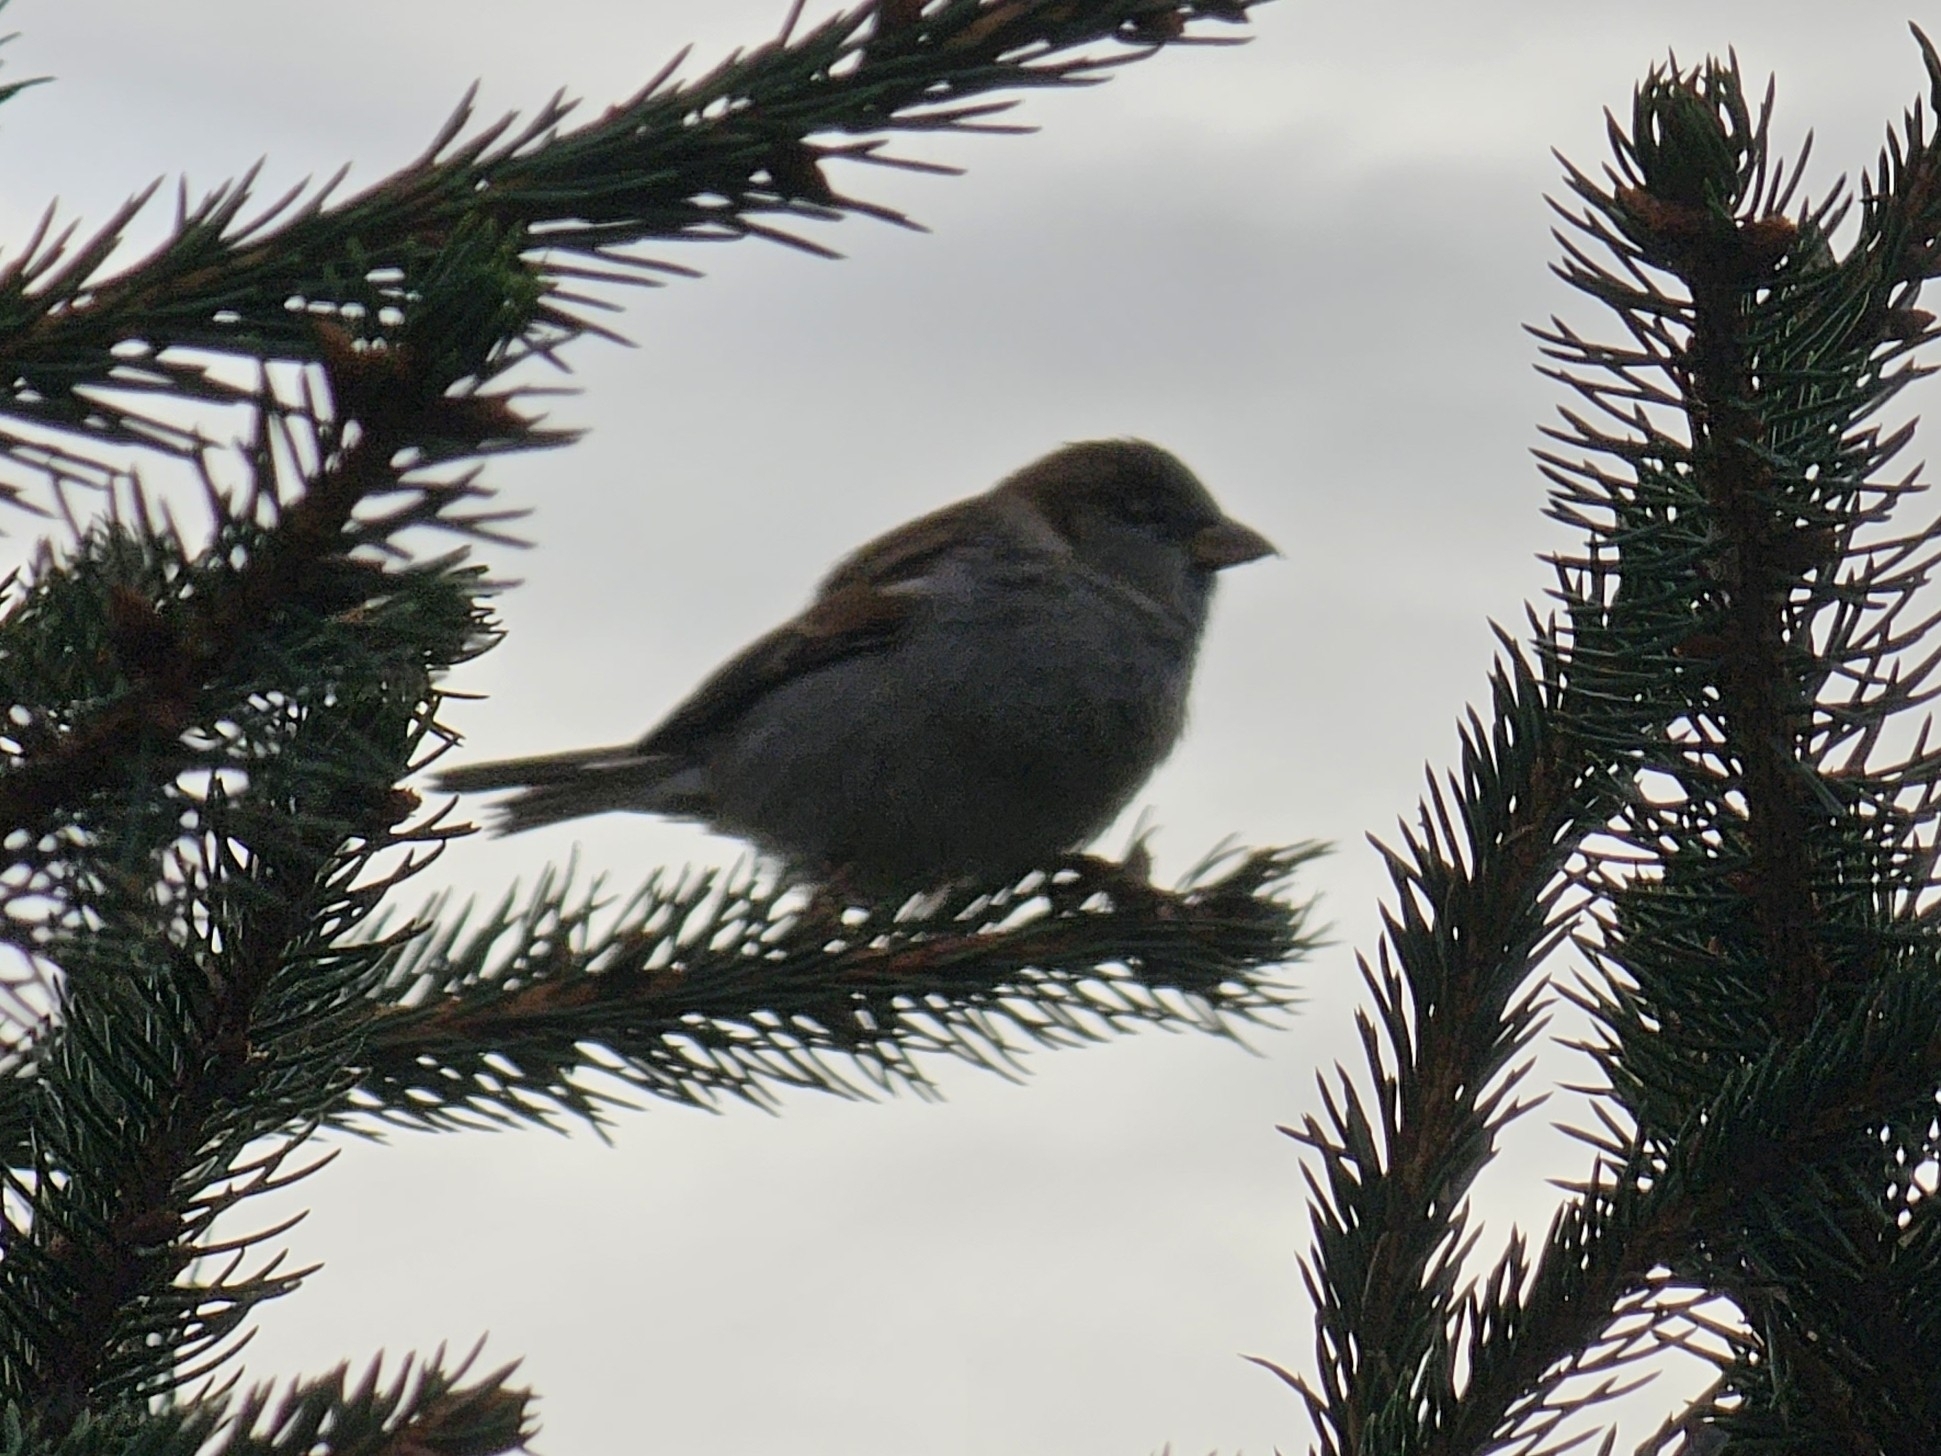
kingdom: Animalia
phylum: Chordata
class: Aves
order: Passeriformes
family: Passeridae
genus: Passer
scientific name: Passer domesticus
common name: House sparrow
